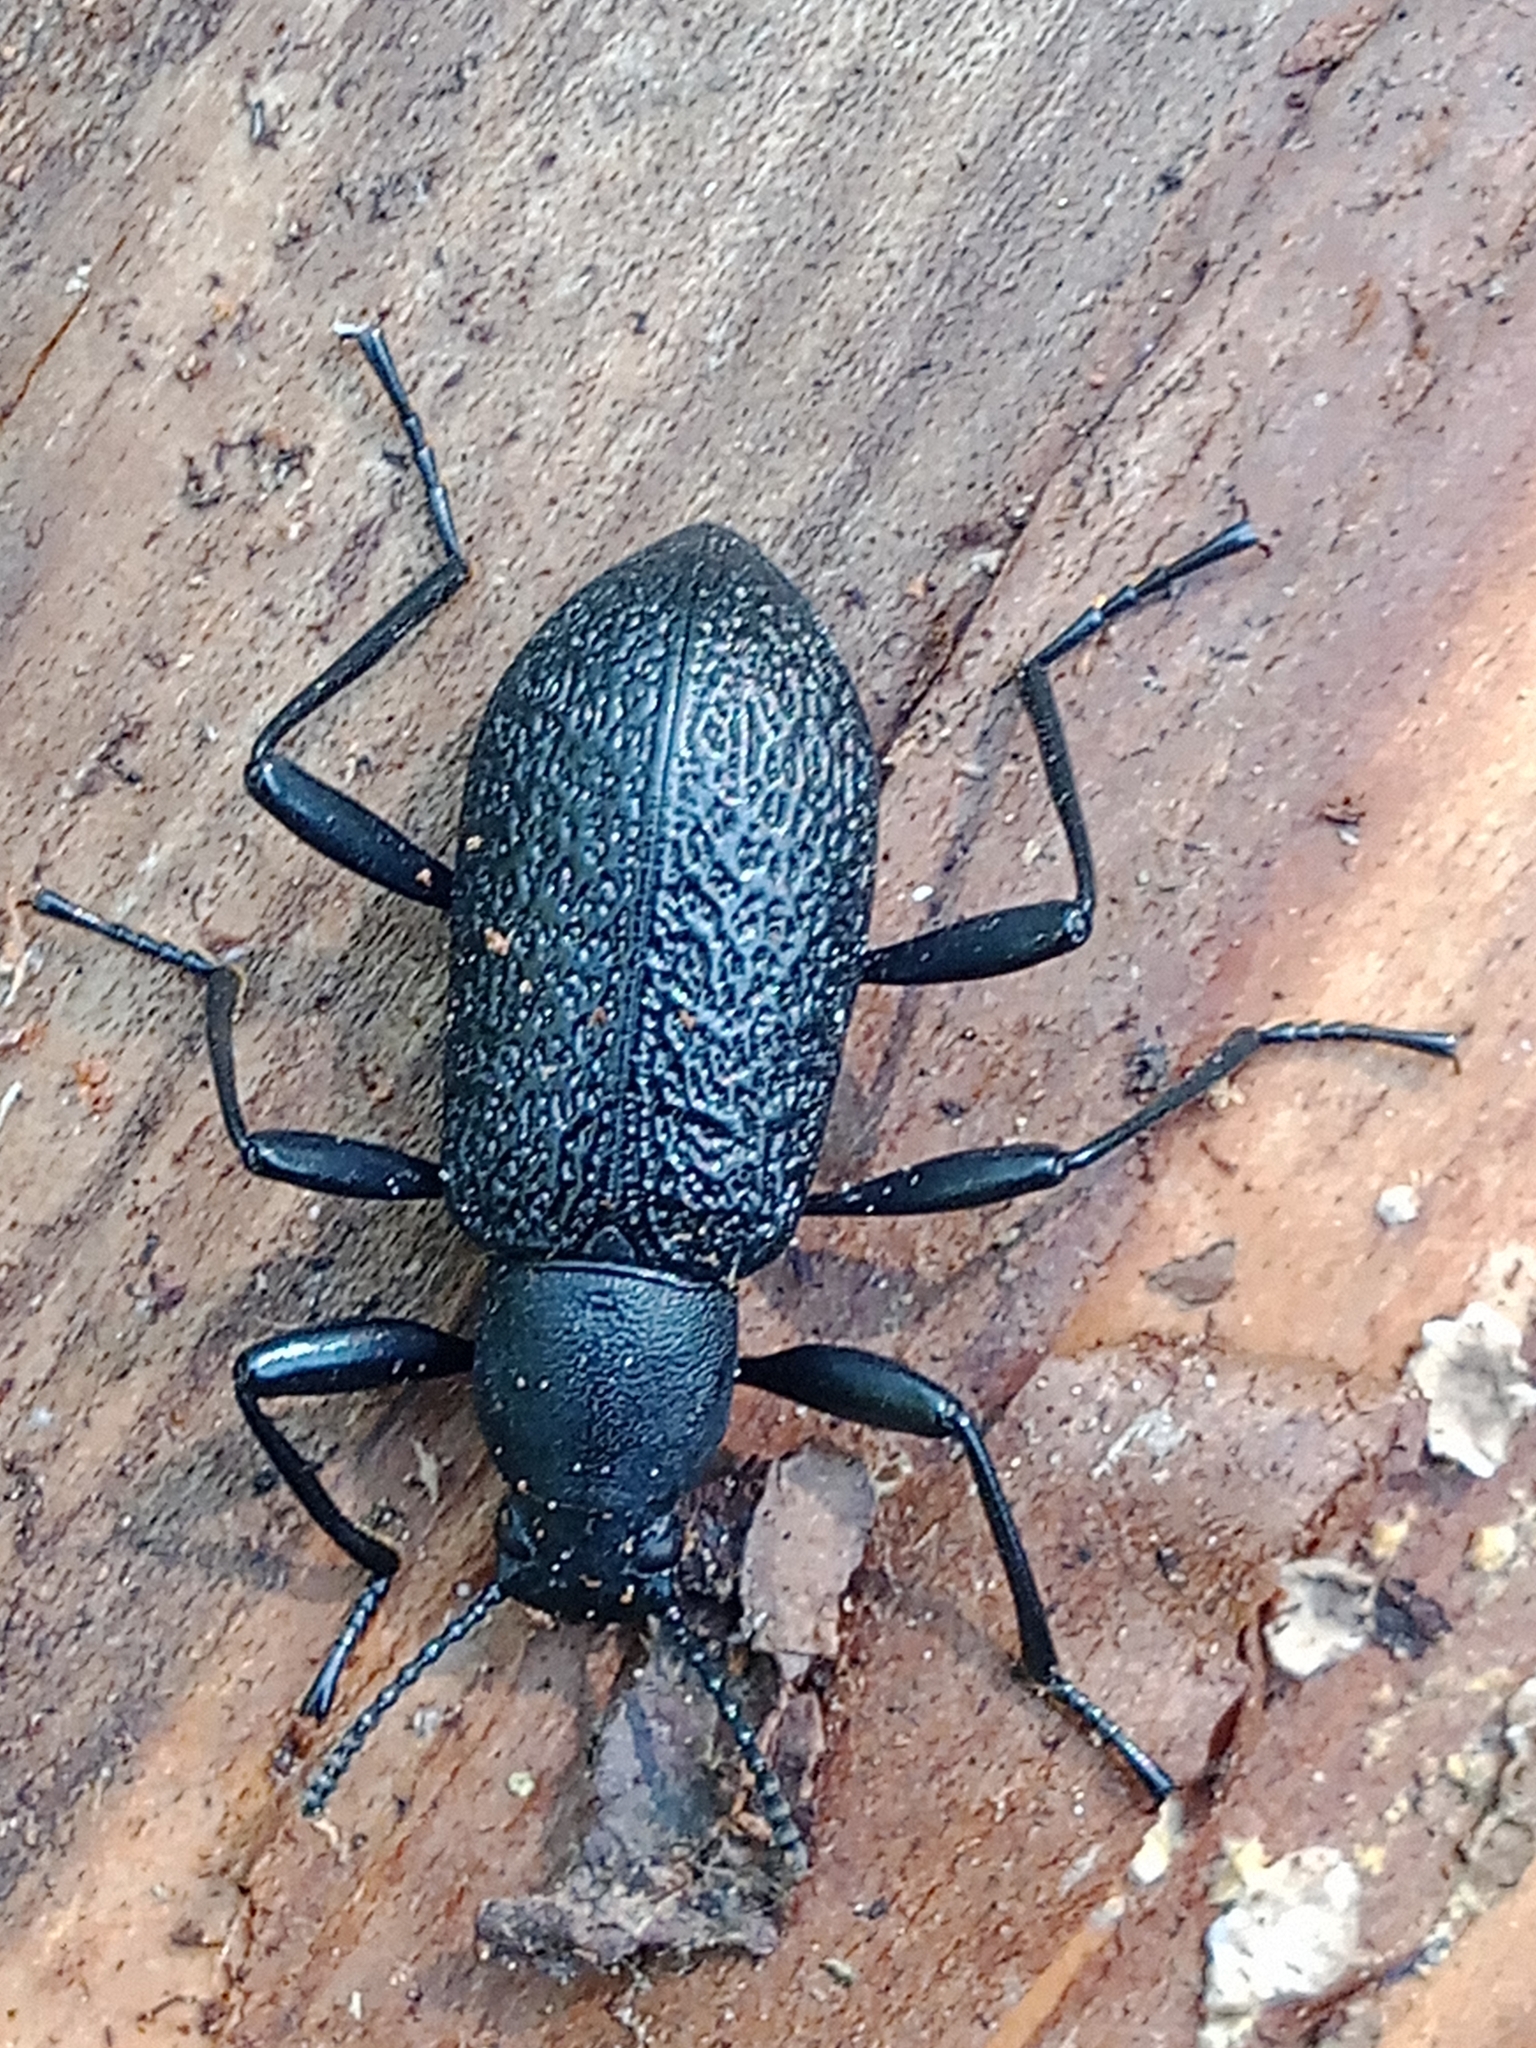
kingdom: Animalia
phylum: Arthropoda
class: Insecta
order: Coleoptera
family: Tenebrionidae
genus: Upis
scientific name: Upis ceramboides
